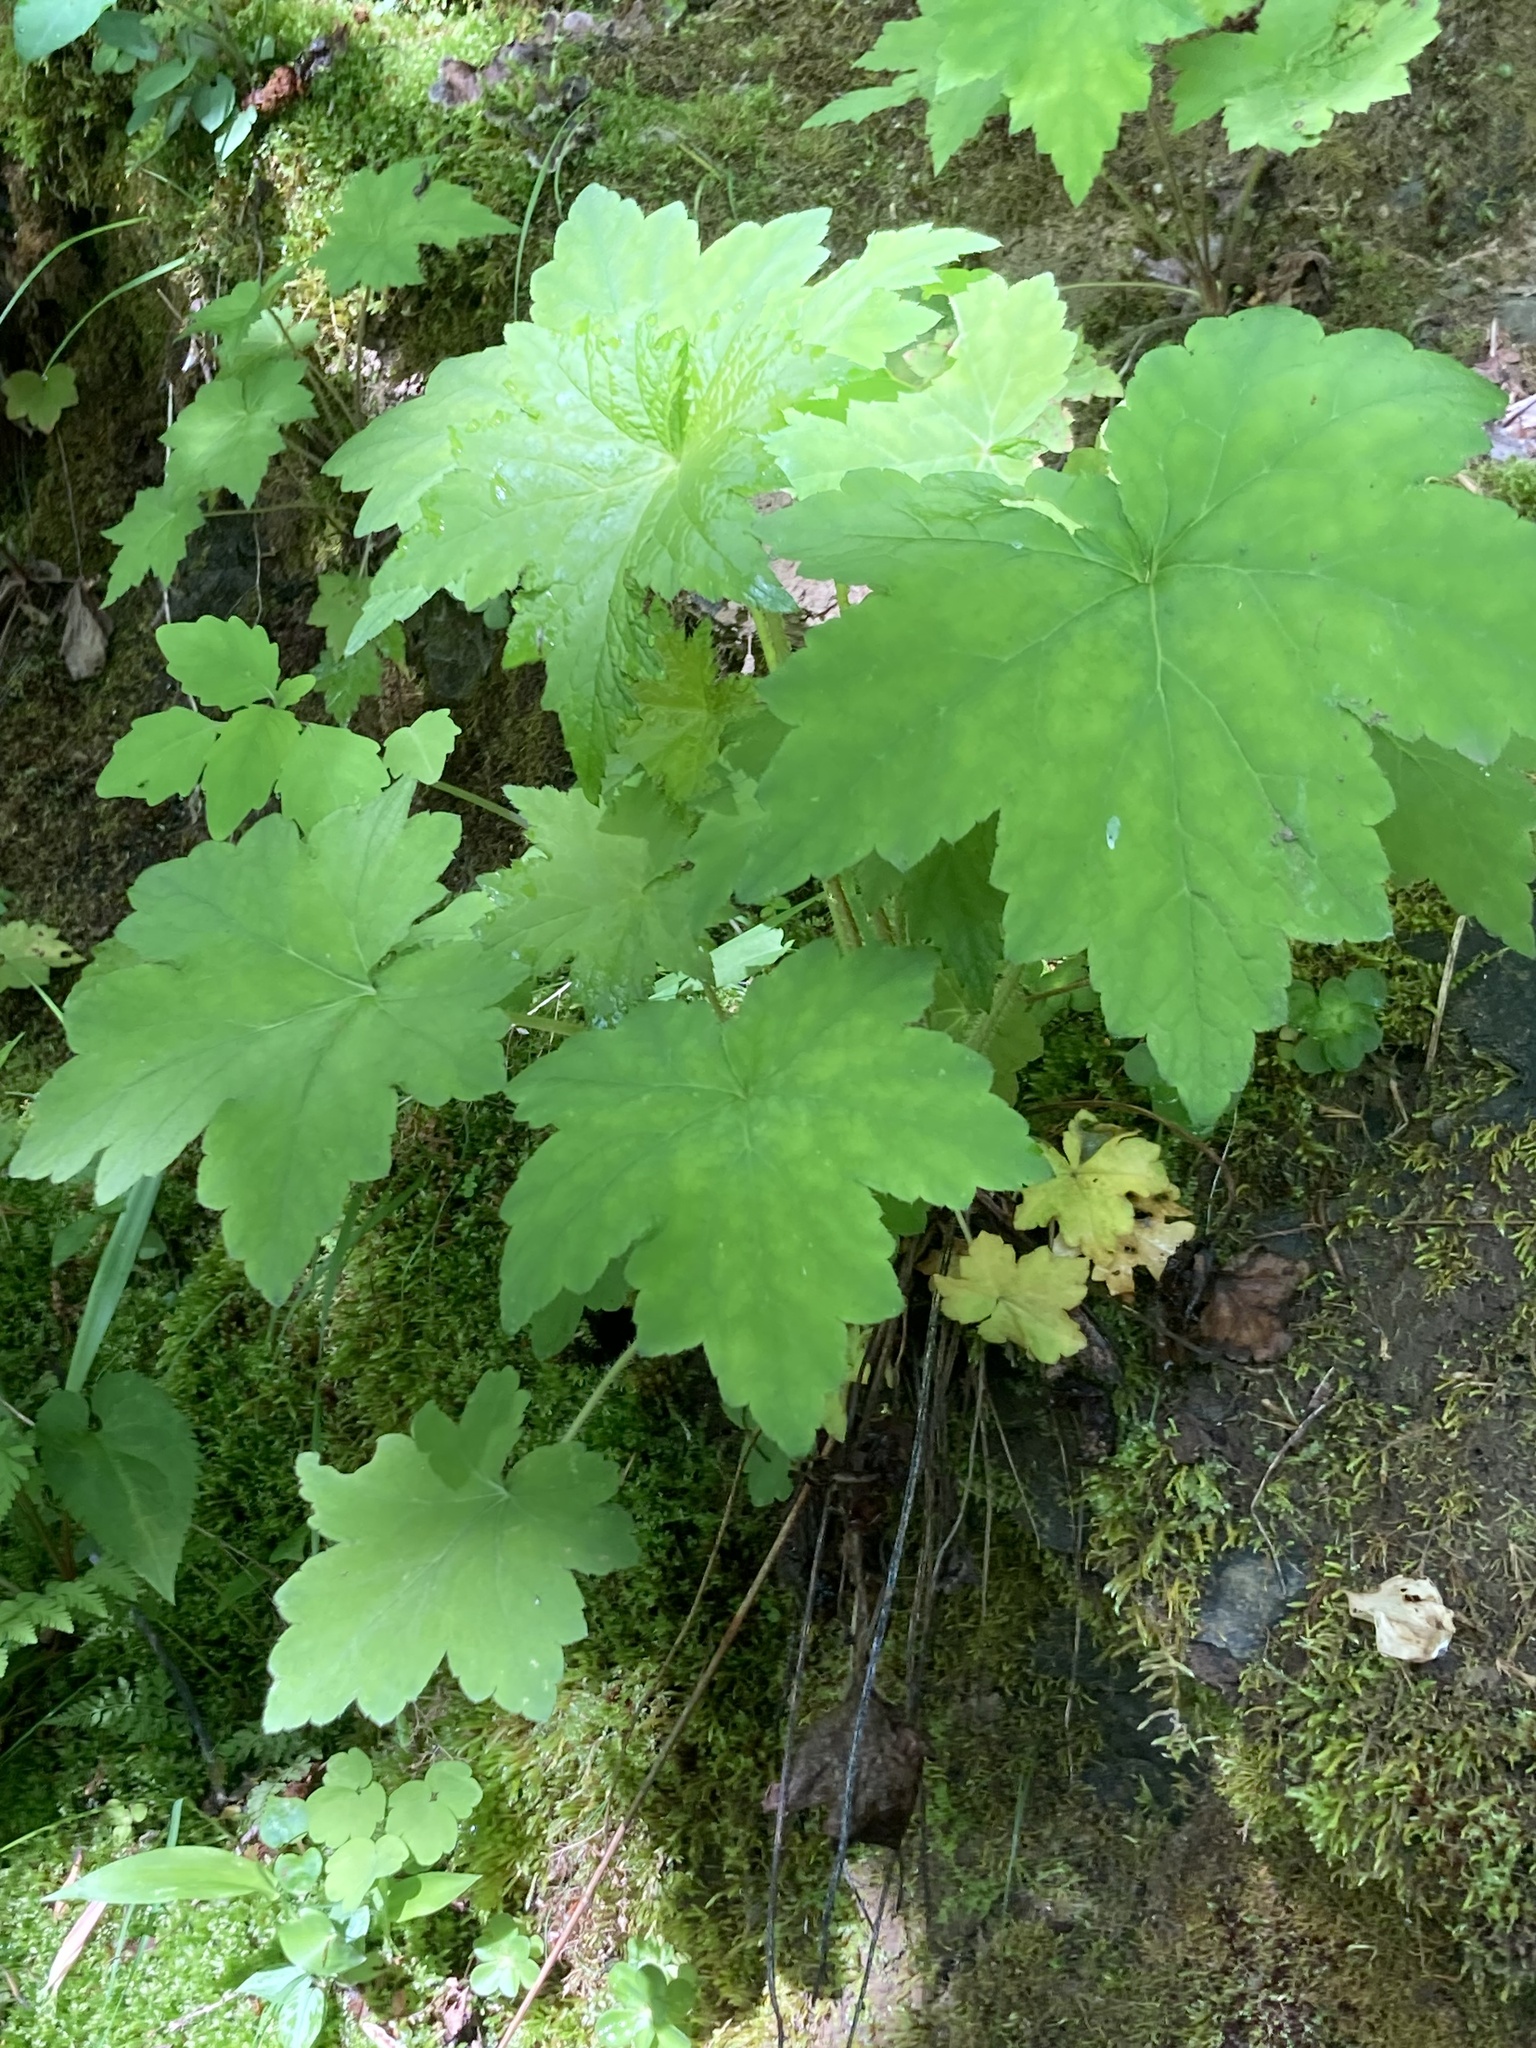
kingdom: Plantae
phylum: Tracheophyta
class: Magnoliopsida
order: Saxifragales
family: Saxifragaceae
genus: Heuchera
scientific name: Heuchera villosa
